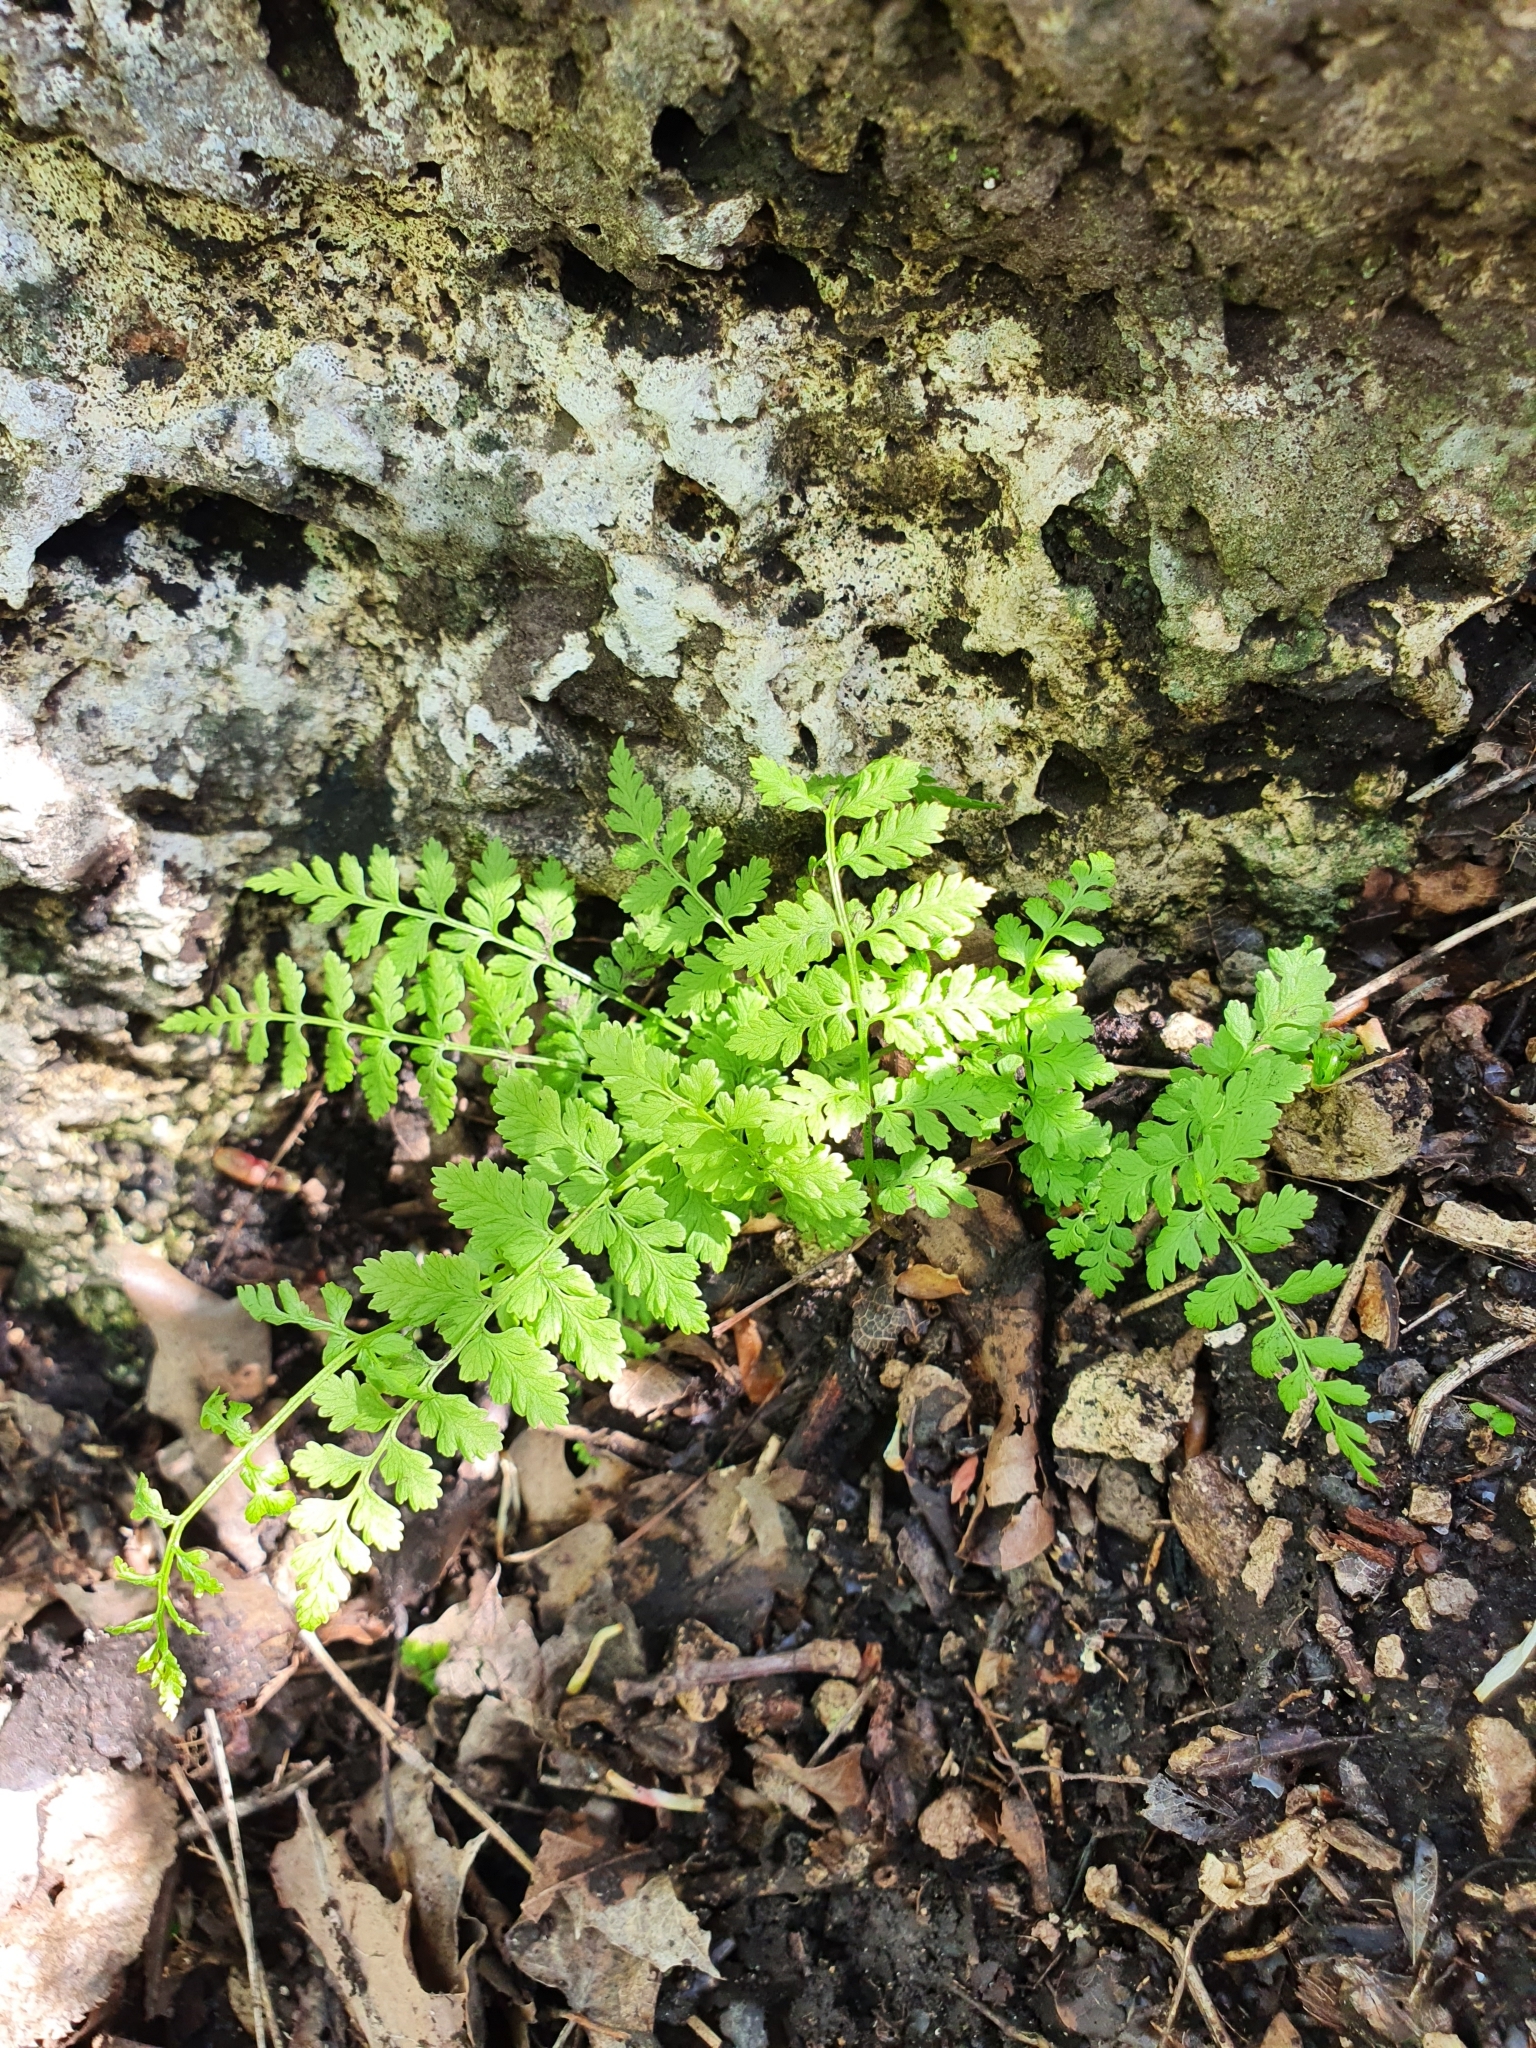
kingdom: Plantae
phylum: Tracheophyta
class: Polypodiopsida
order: Polypodiales
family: Cystopteridaceae
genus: Cystopteris
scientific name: Cystopteris fragilis
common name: Brittle bladder fern
